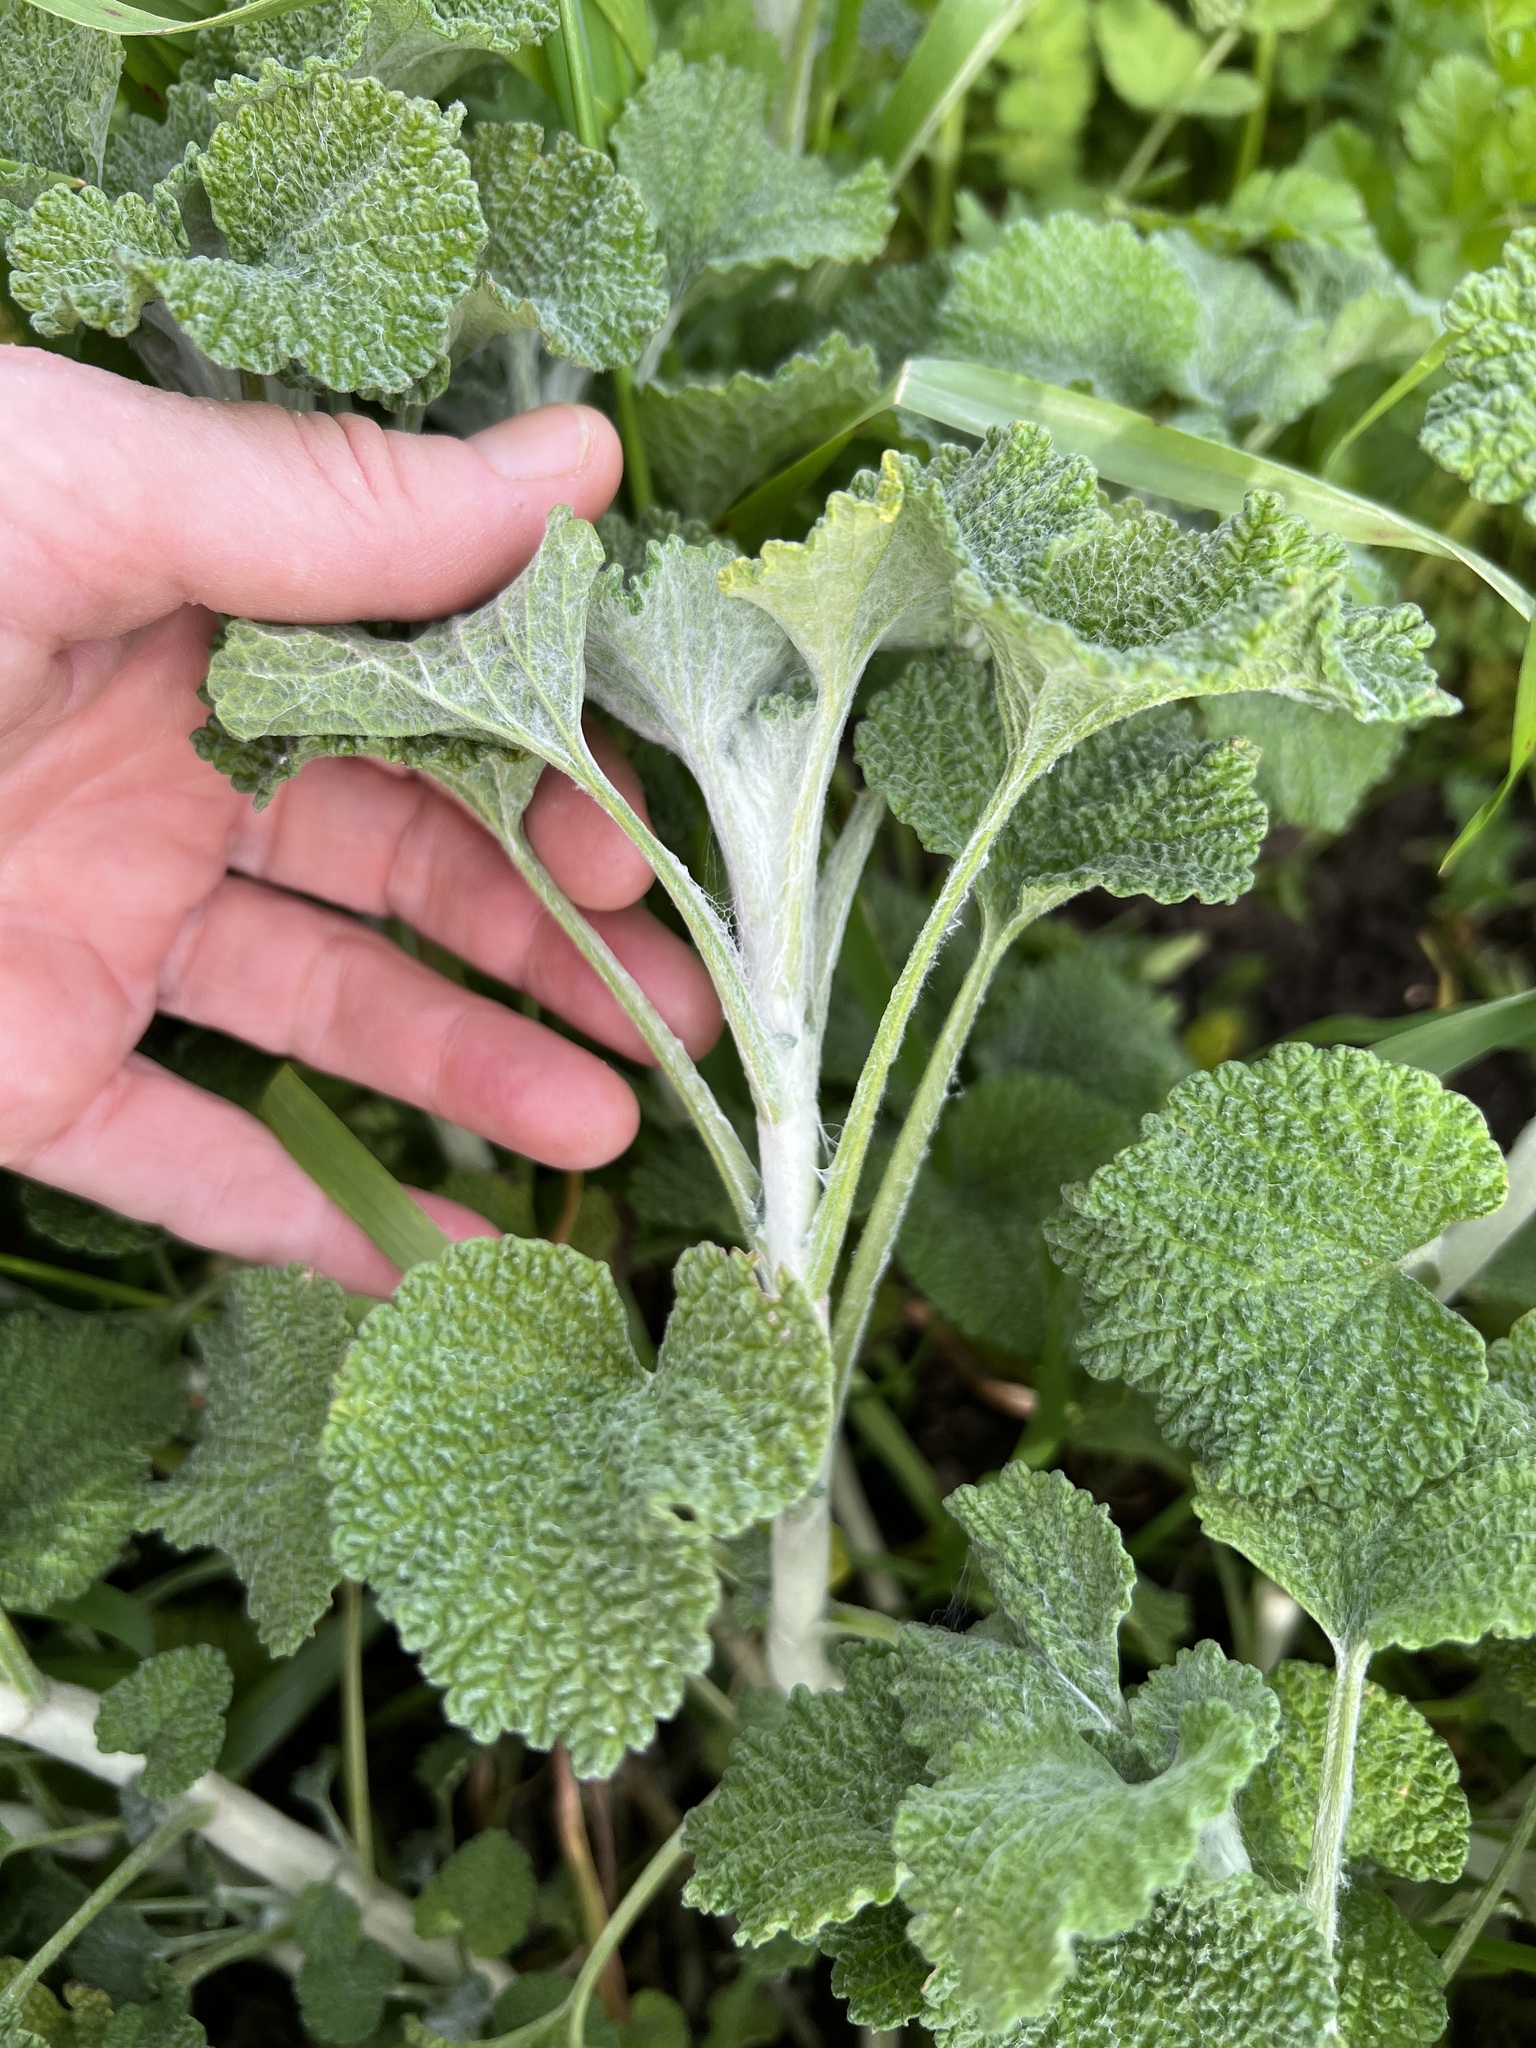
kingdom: Plantae
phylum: Tracheophyta
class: Magnoliopsida
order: Lamiales
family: Lamiaceae
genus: Marrubium
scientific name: Marrubium vulgare
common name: Horehound
